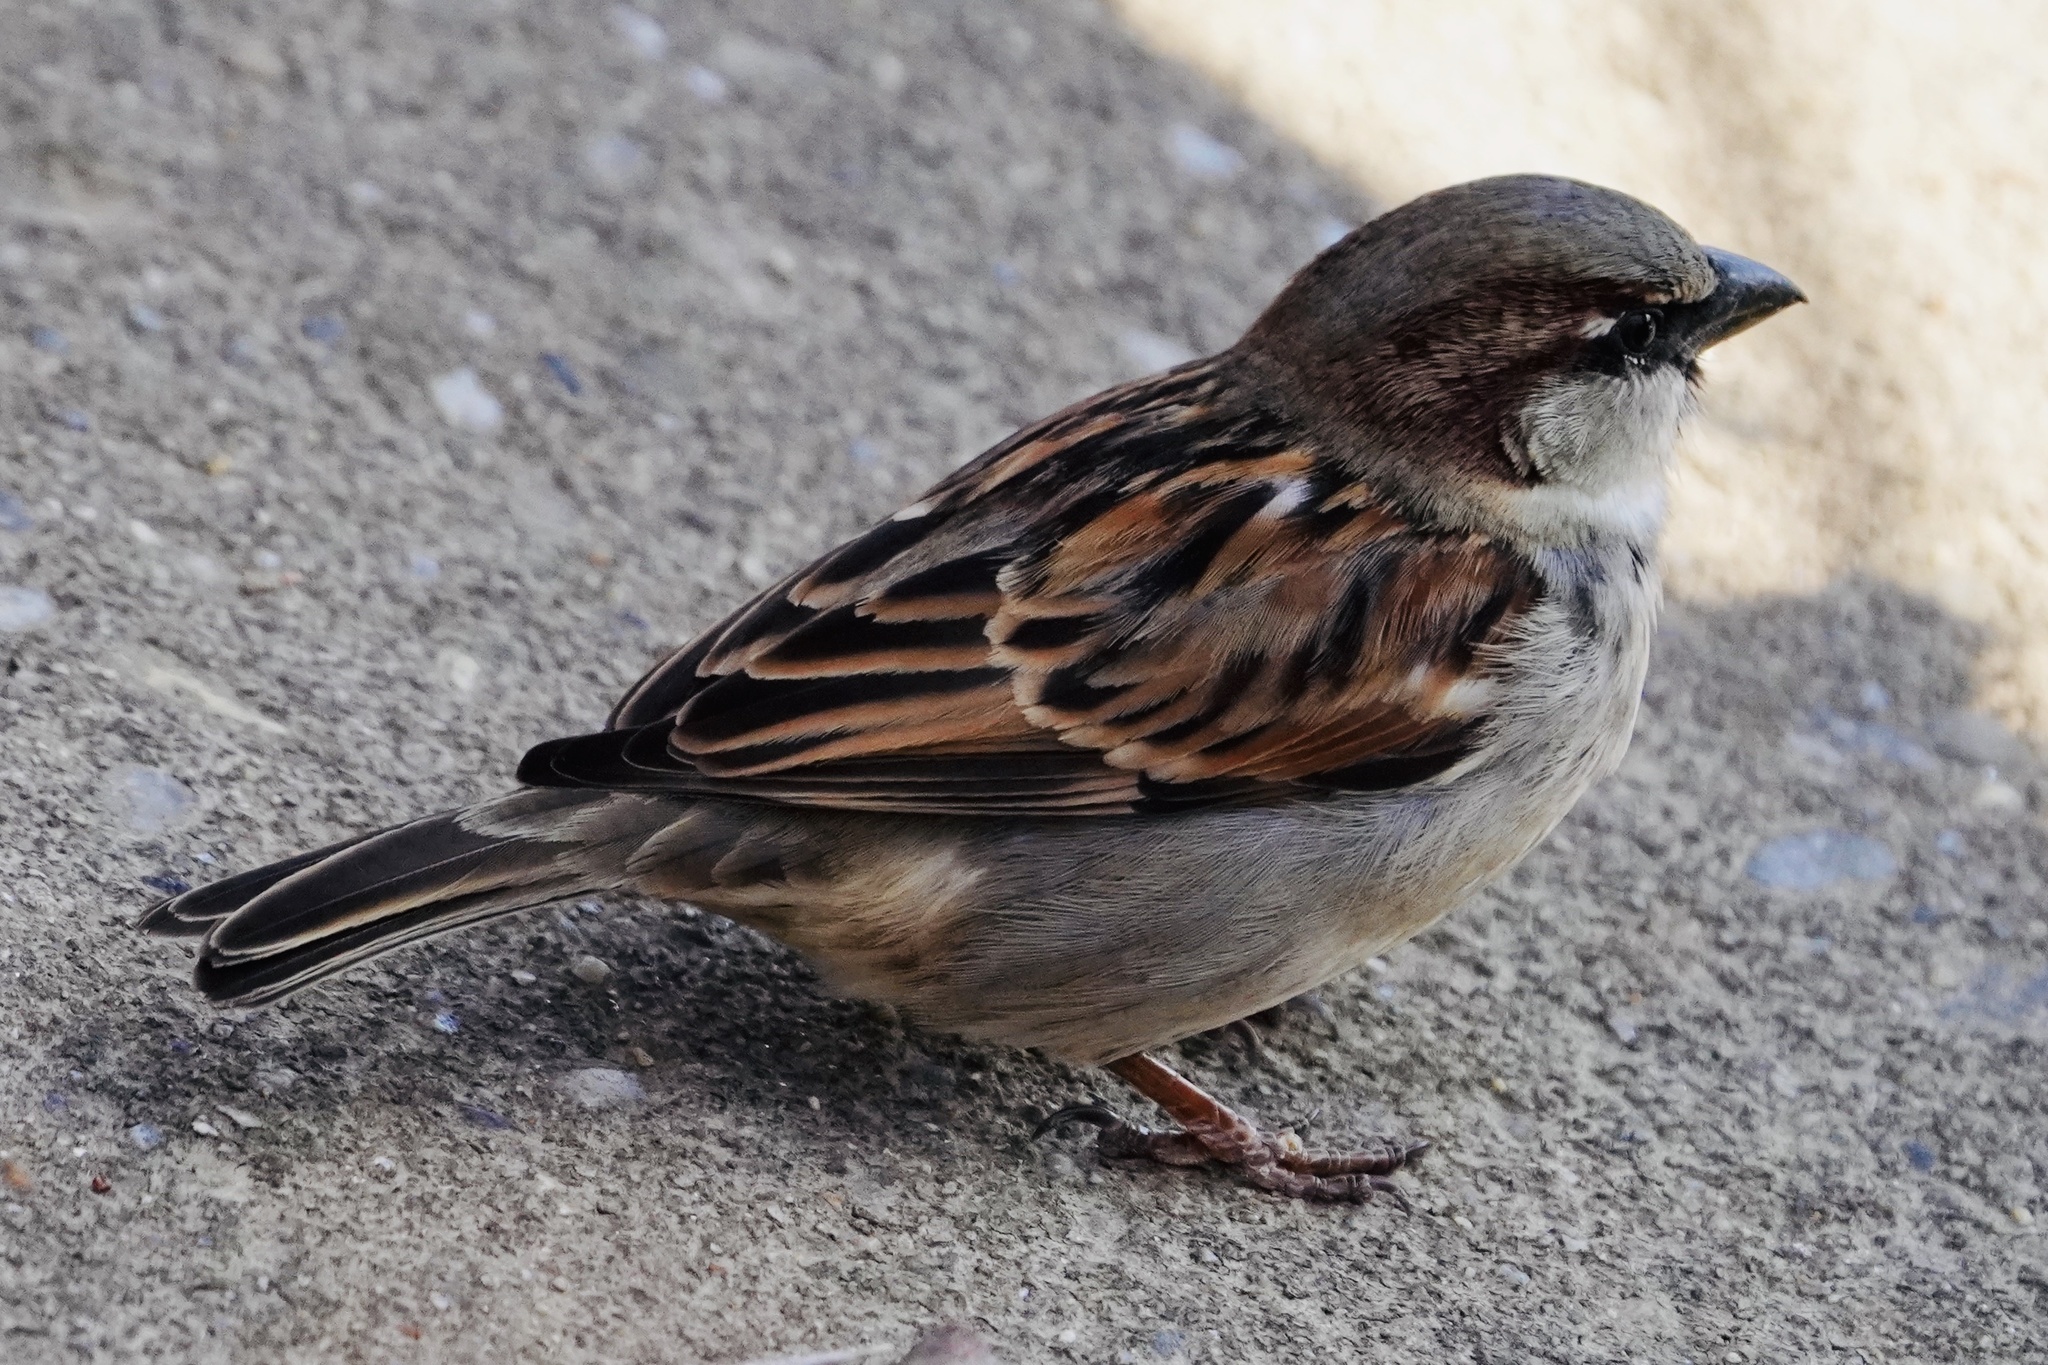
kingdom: Animalia
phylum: Chordata
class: Aves
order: Passeriformes
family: Passeridae
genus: Passer
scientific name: Passer domesticus
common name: House sparrow
